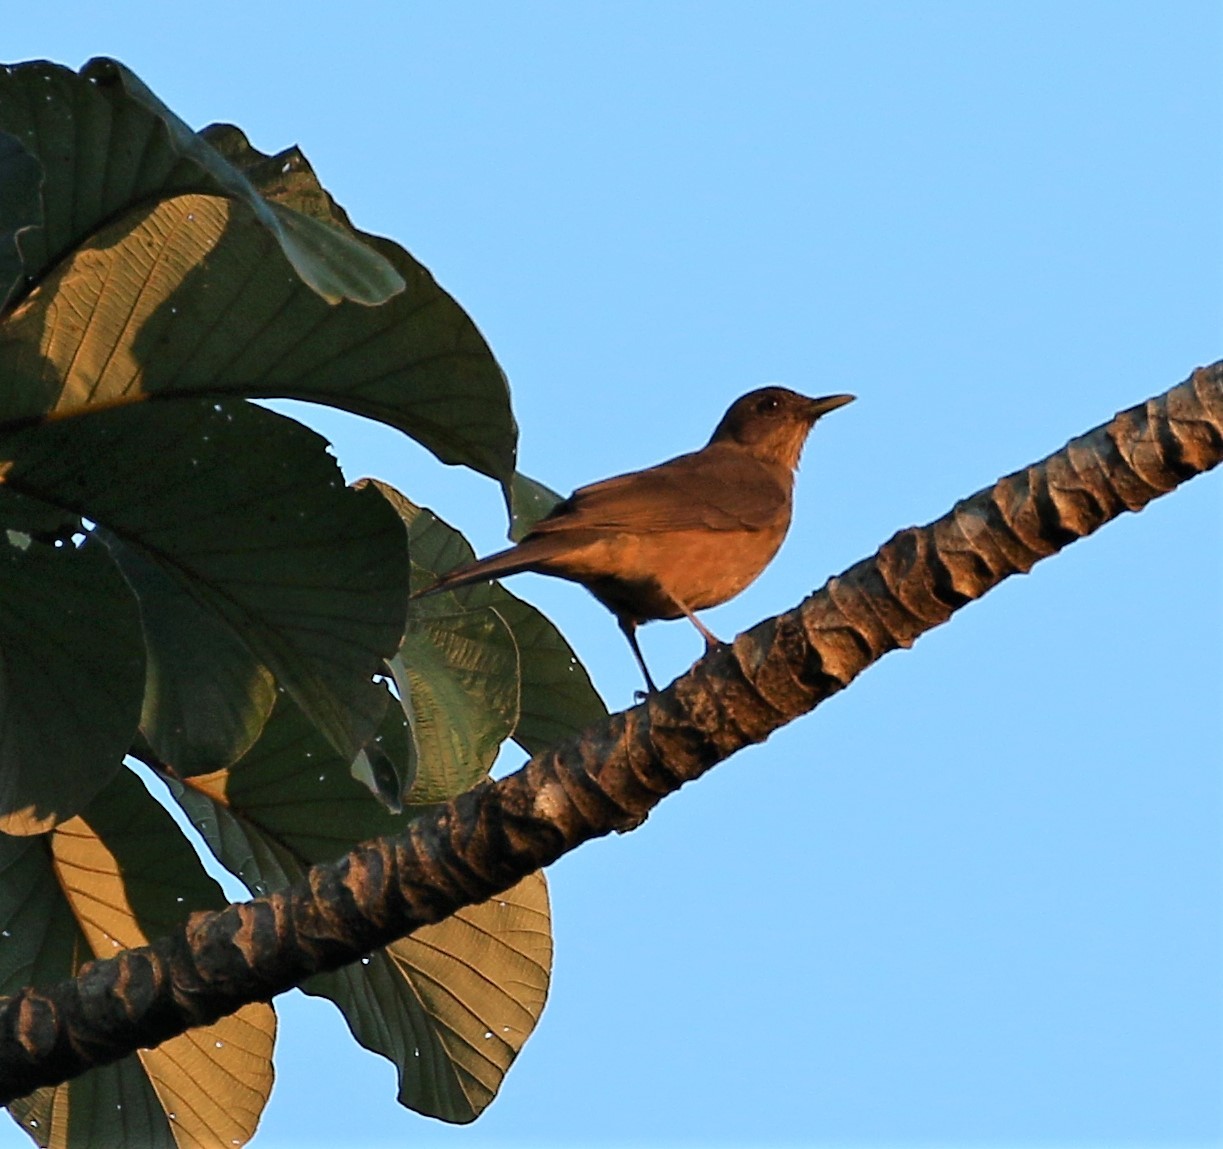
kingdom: Animalia
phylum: Chordata
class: Aves
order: Passeriformes
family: Turdidae
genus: Turdus
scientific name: Turdus grayi
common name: Clay-colored thrush
